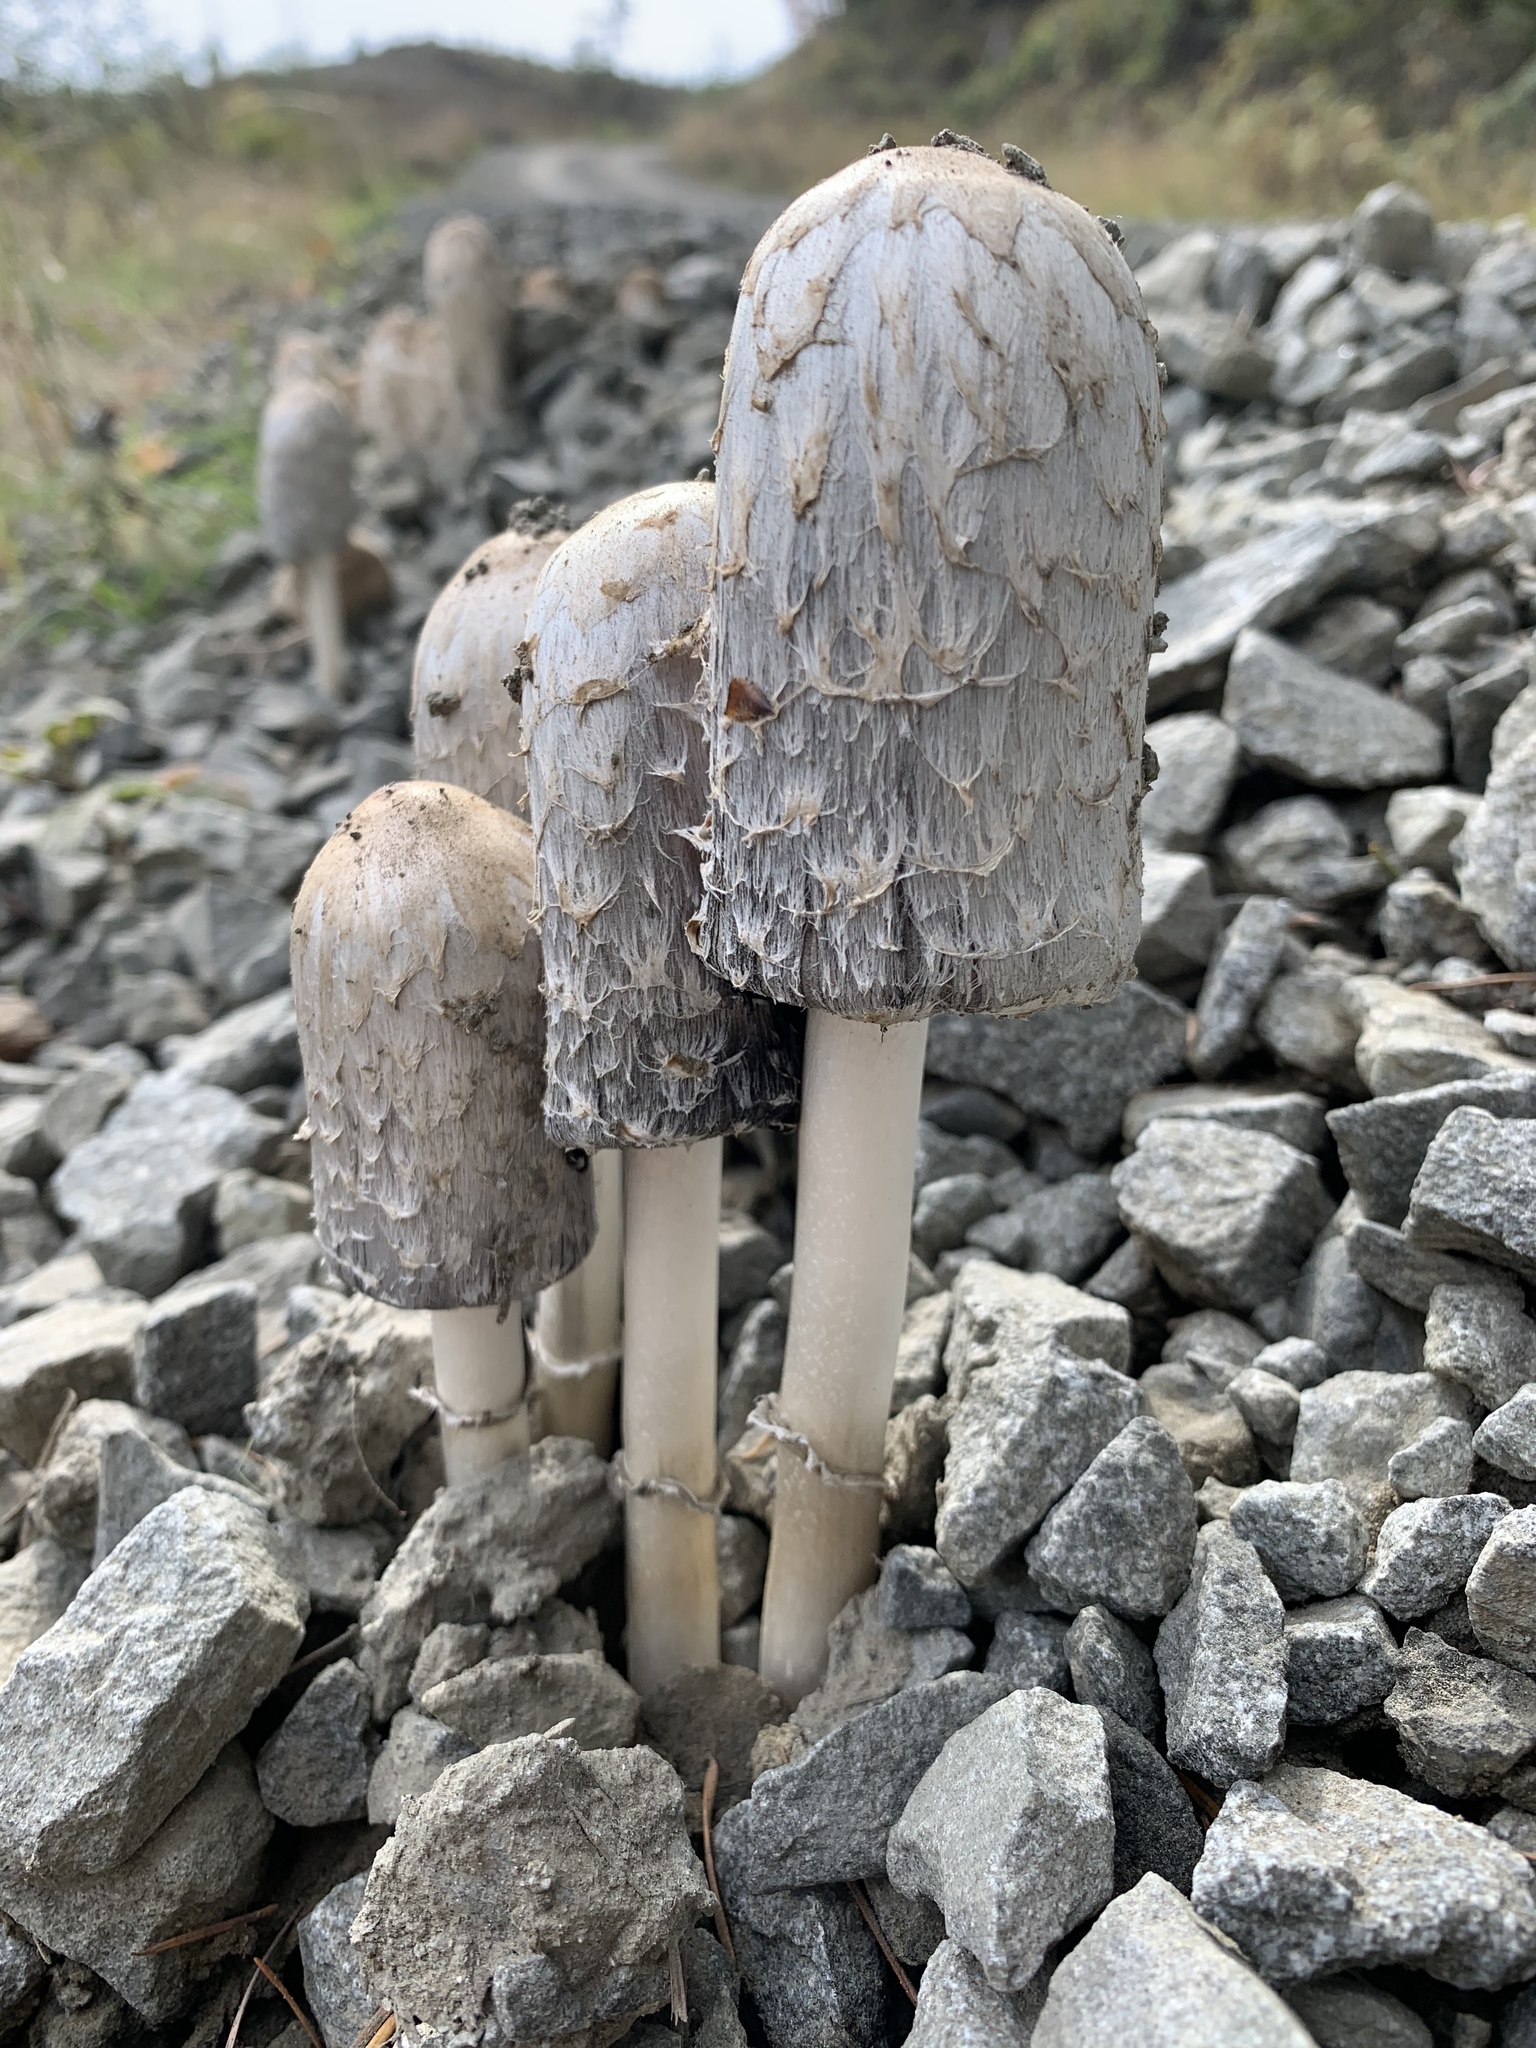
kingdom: Fungi
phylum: Basidiomycota
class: Agaricomycetes
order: Agaricales
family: Agaricaceae
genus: Coprinus
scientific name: Coprinus comatus
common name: Lawyer's wig
